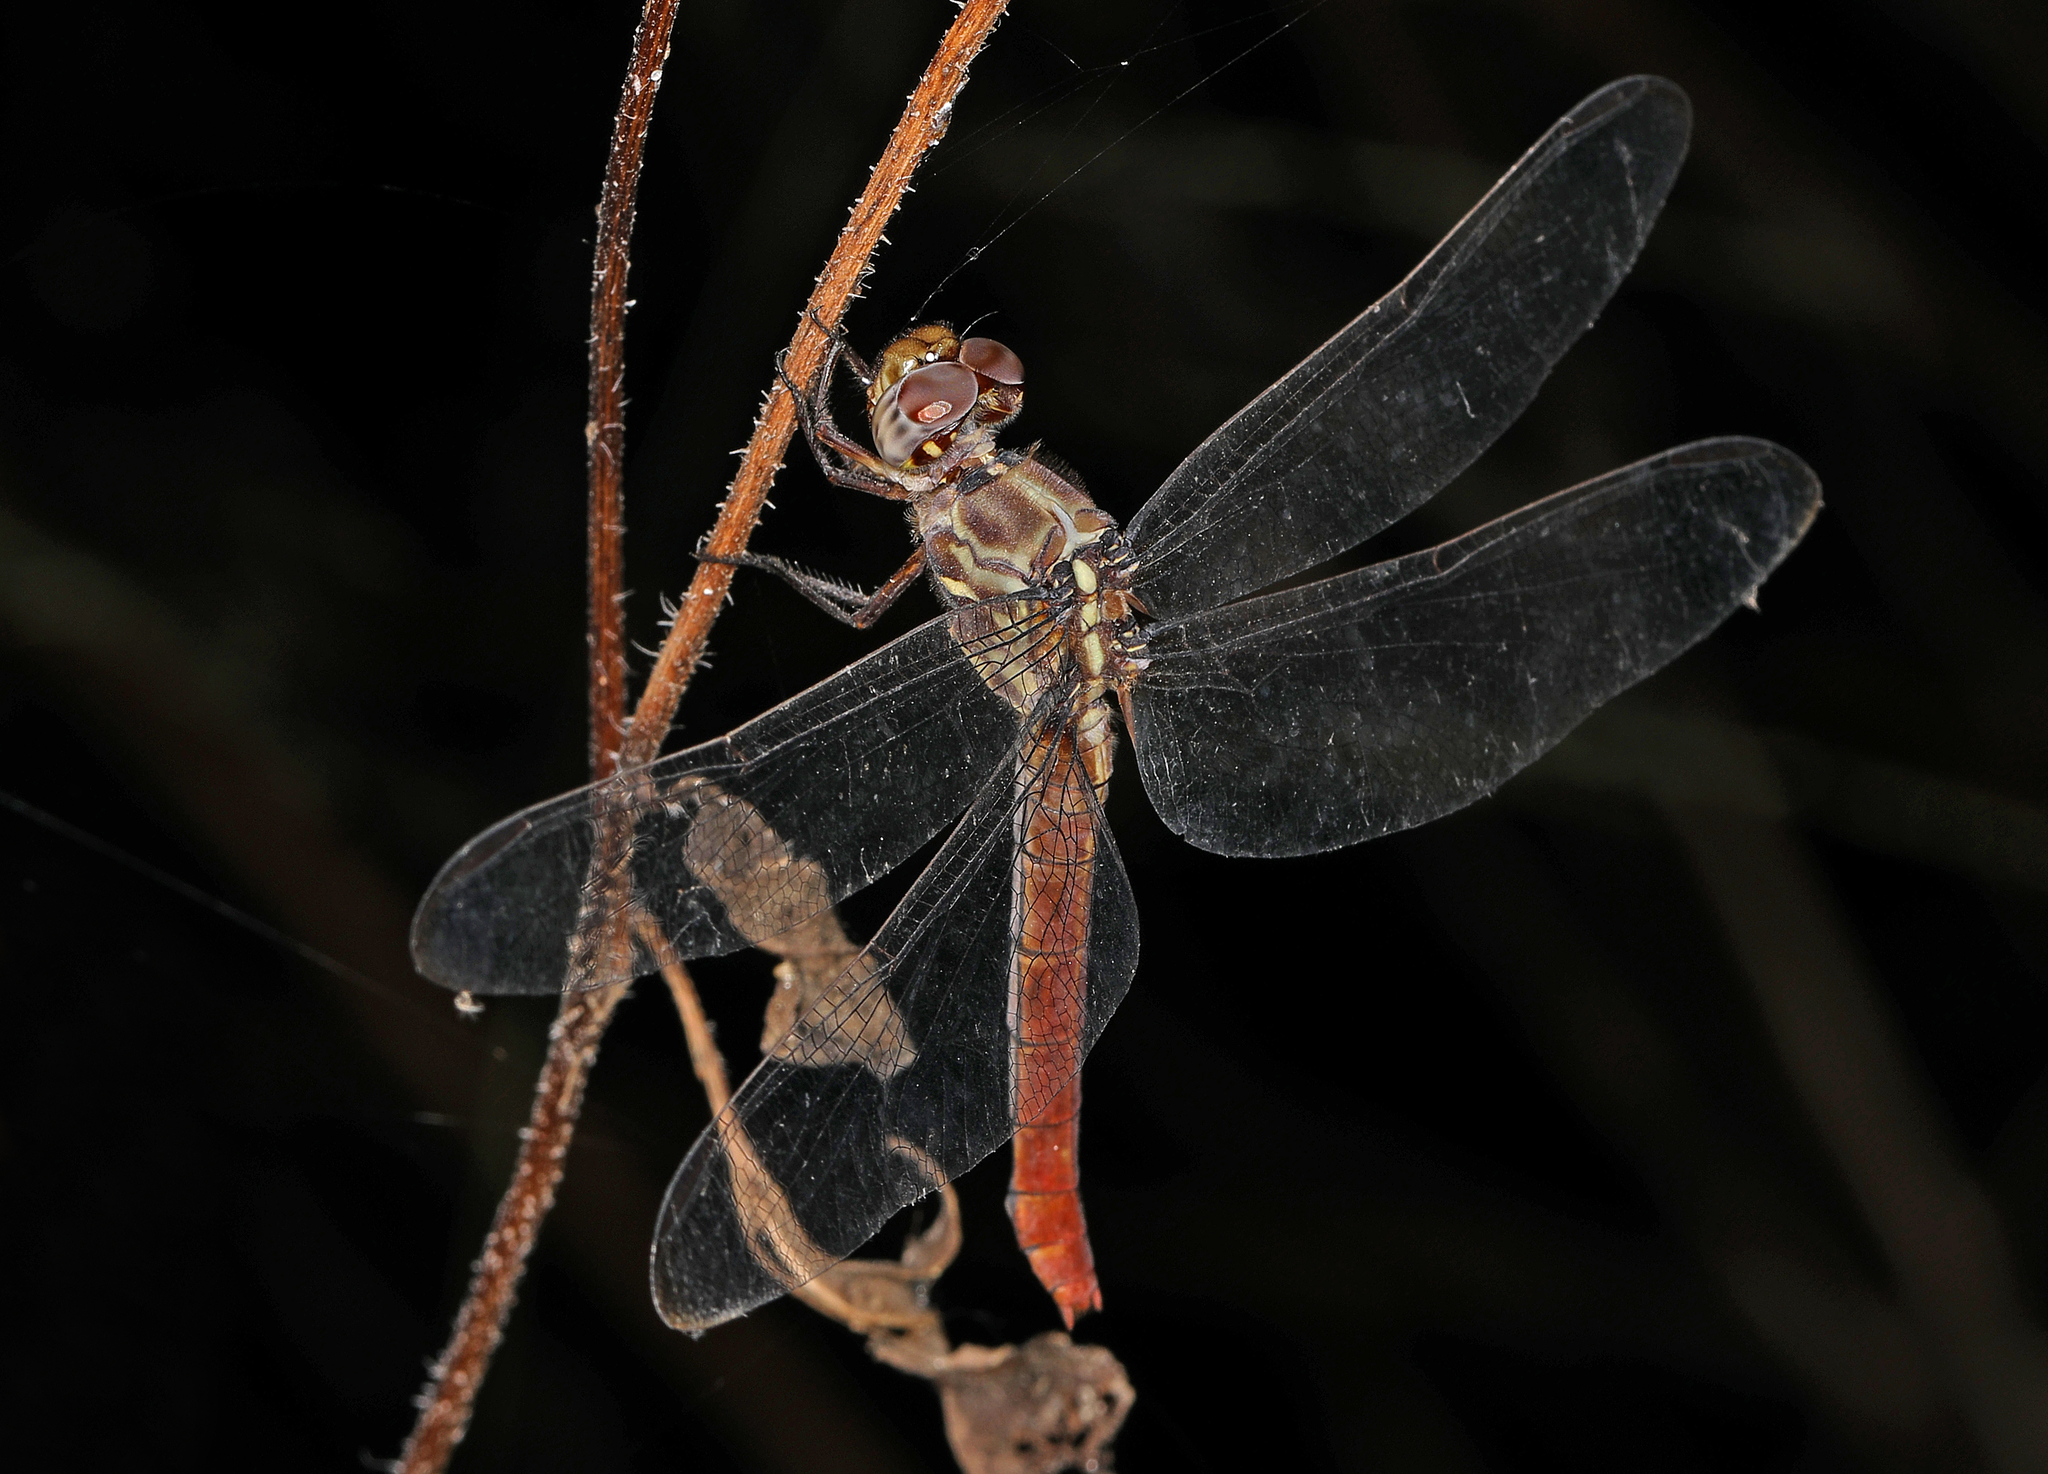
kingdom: Animalia
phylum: Arthropoda
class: Insecta
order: Odonata
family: Libellulidae
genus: Orthemis
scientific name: Orthemis ferruginea
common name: Roseate skimmer
